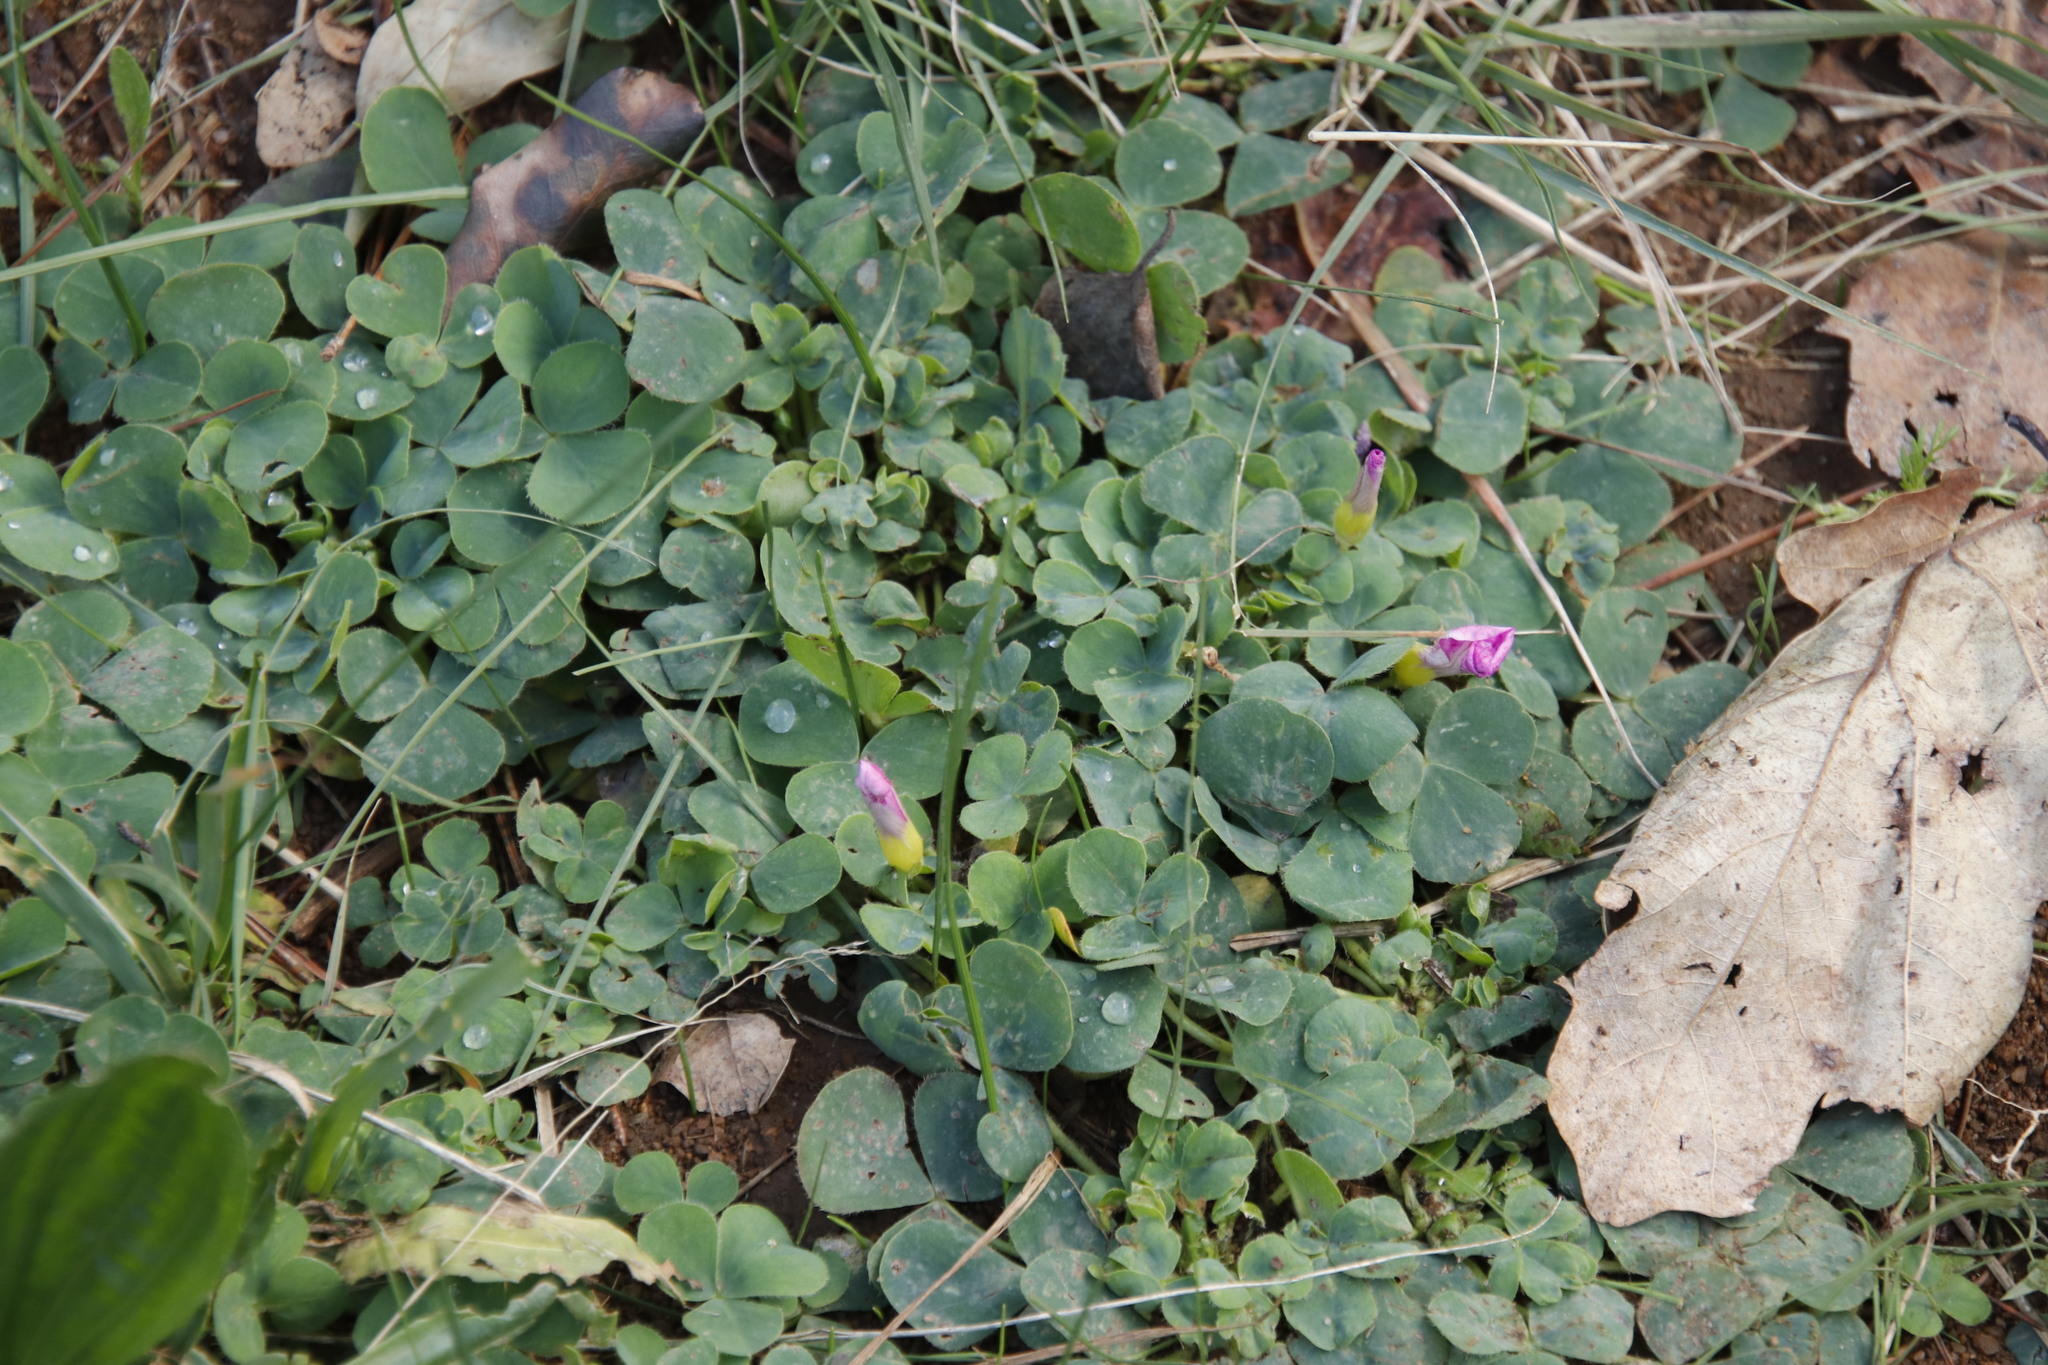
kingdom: Plantae
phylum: Tracheophyta
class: Magnoliopsida
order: Oxalidales
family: Oxalidaceae
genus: Oxalis
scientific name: Oxalis purpurea
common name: Purple woodsorrel
